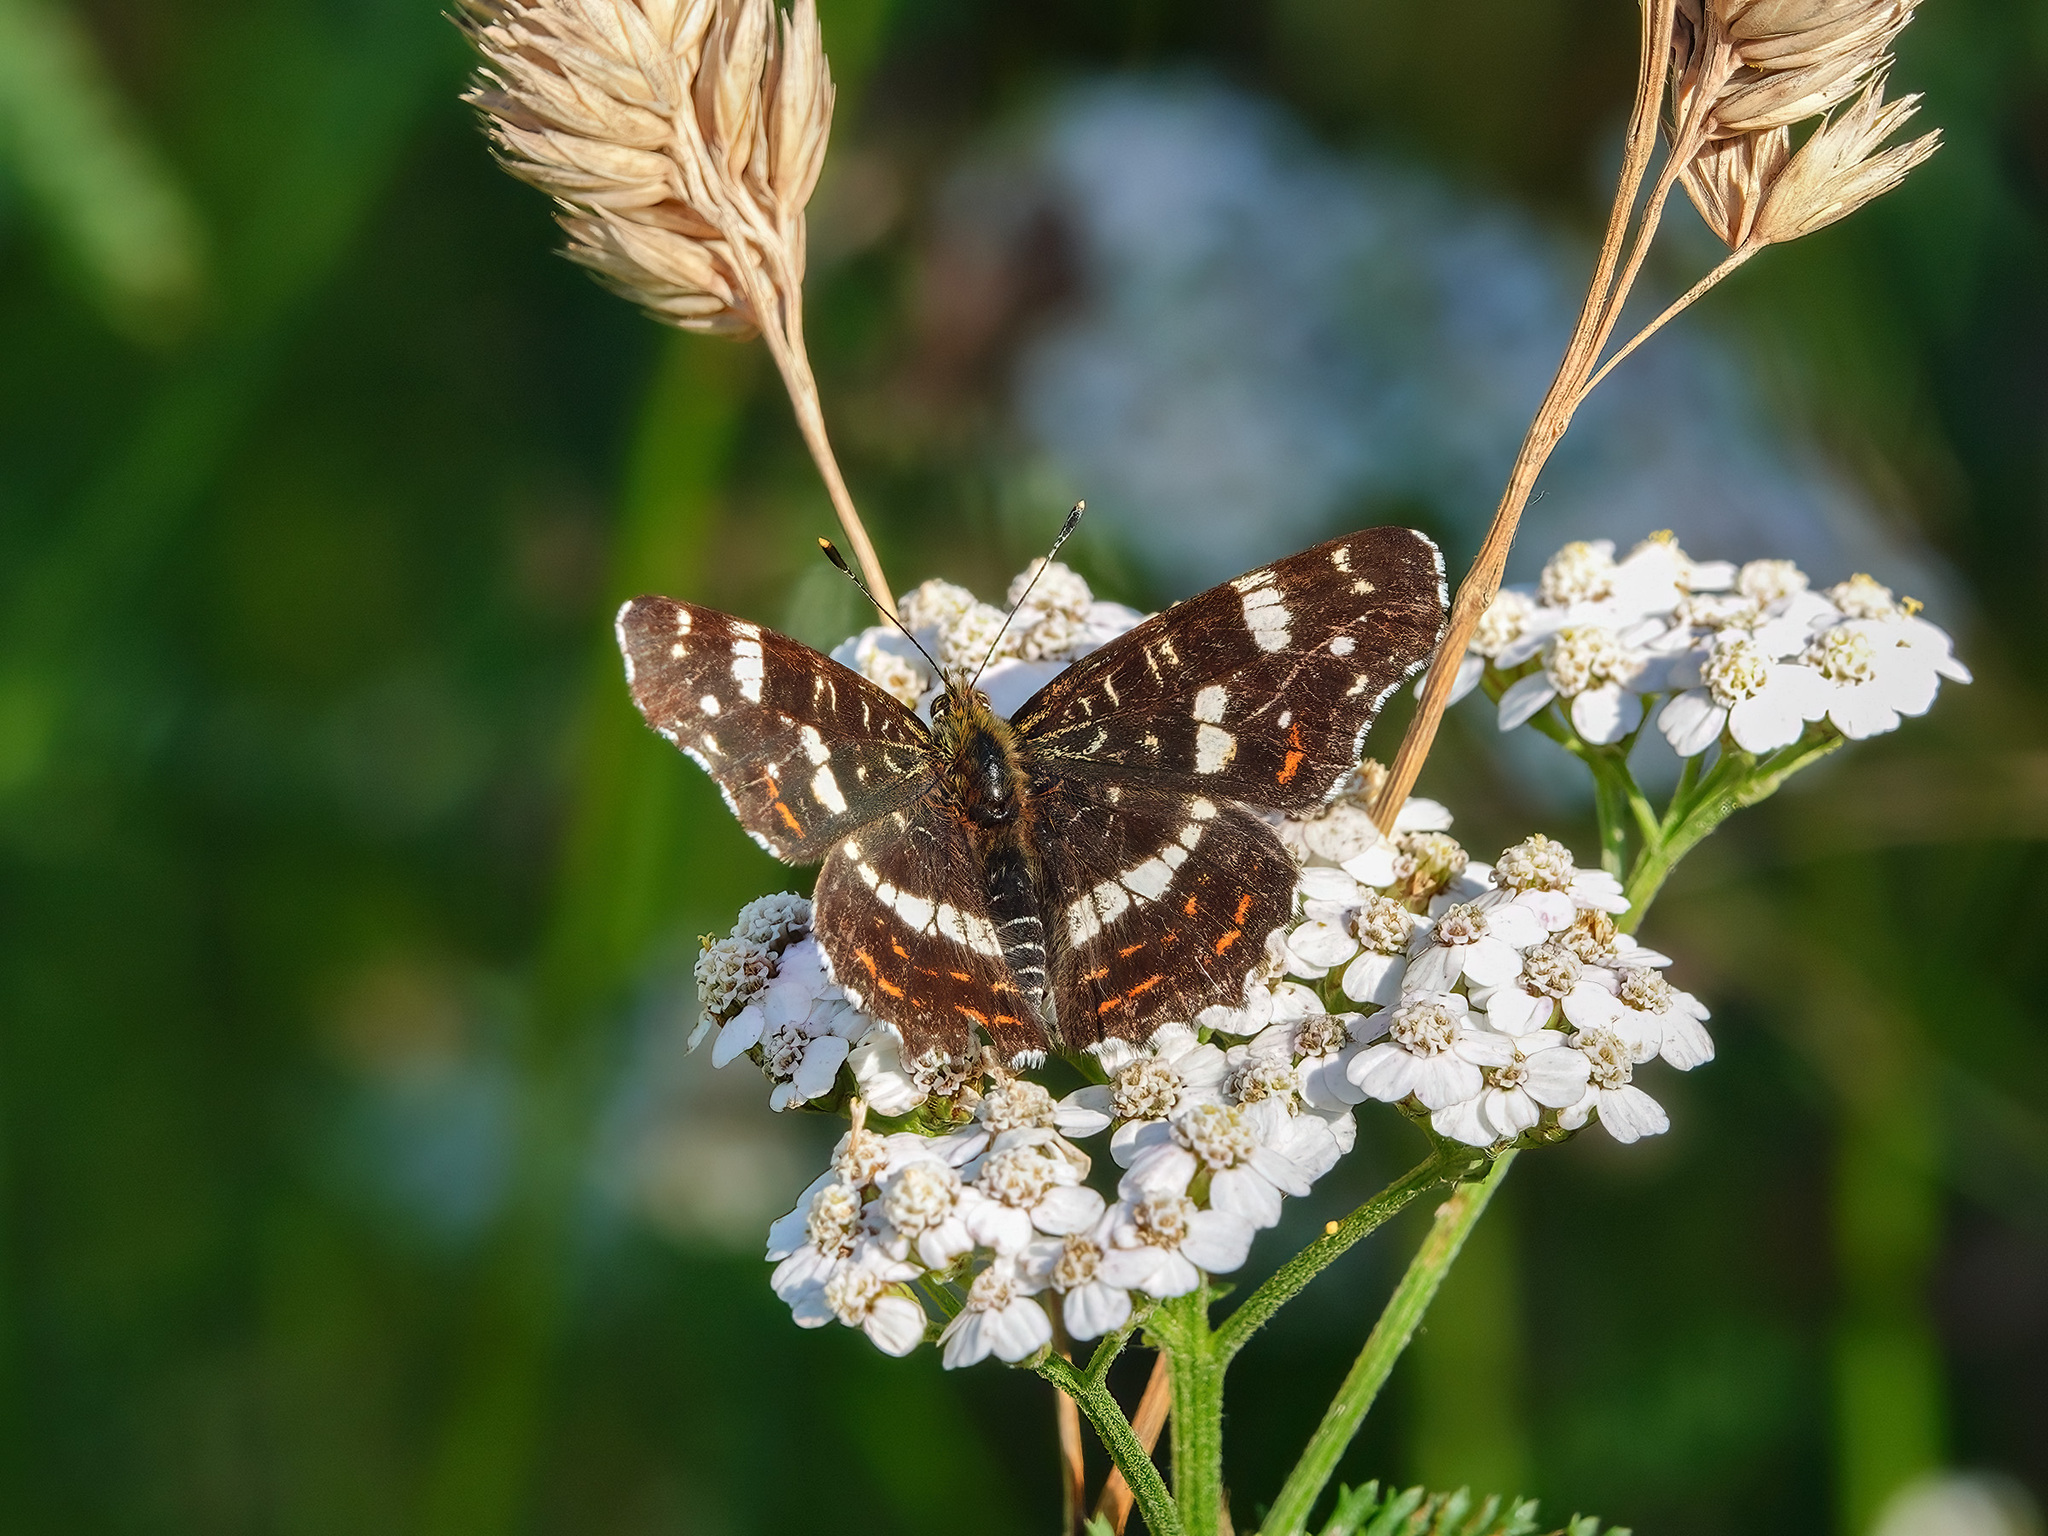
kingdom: Animalia
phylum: Arthropoda
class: Insecta
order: Lepidoptera
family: Nymphalidae
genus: Araschnia
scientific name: Araschnia levana
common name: Map butterfly
